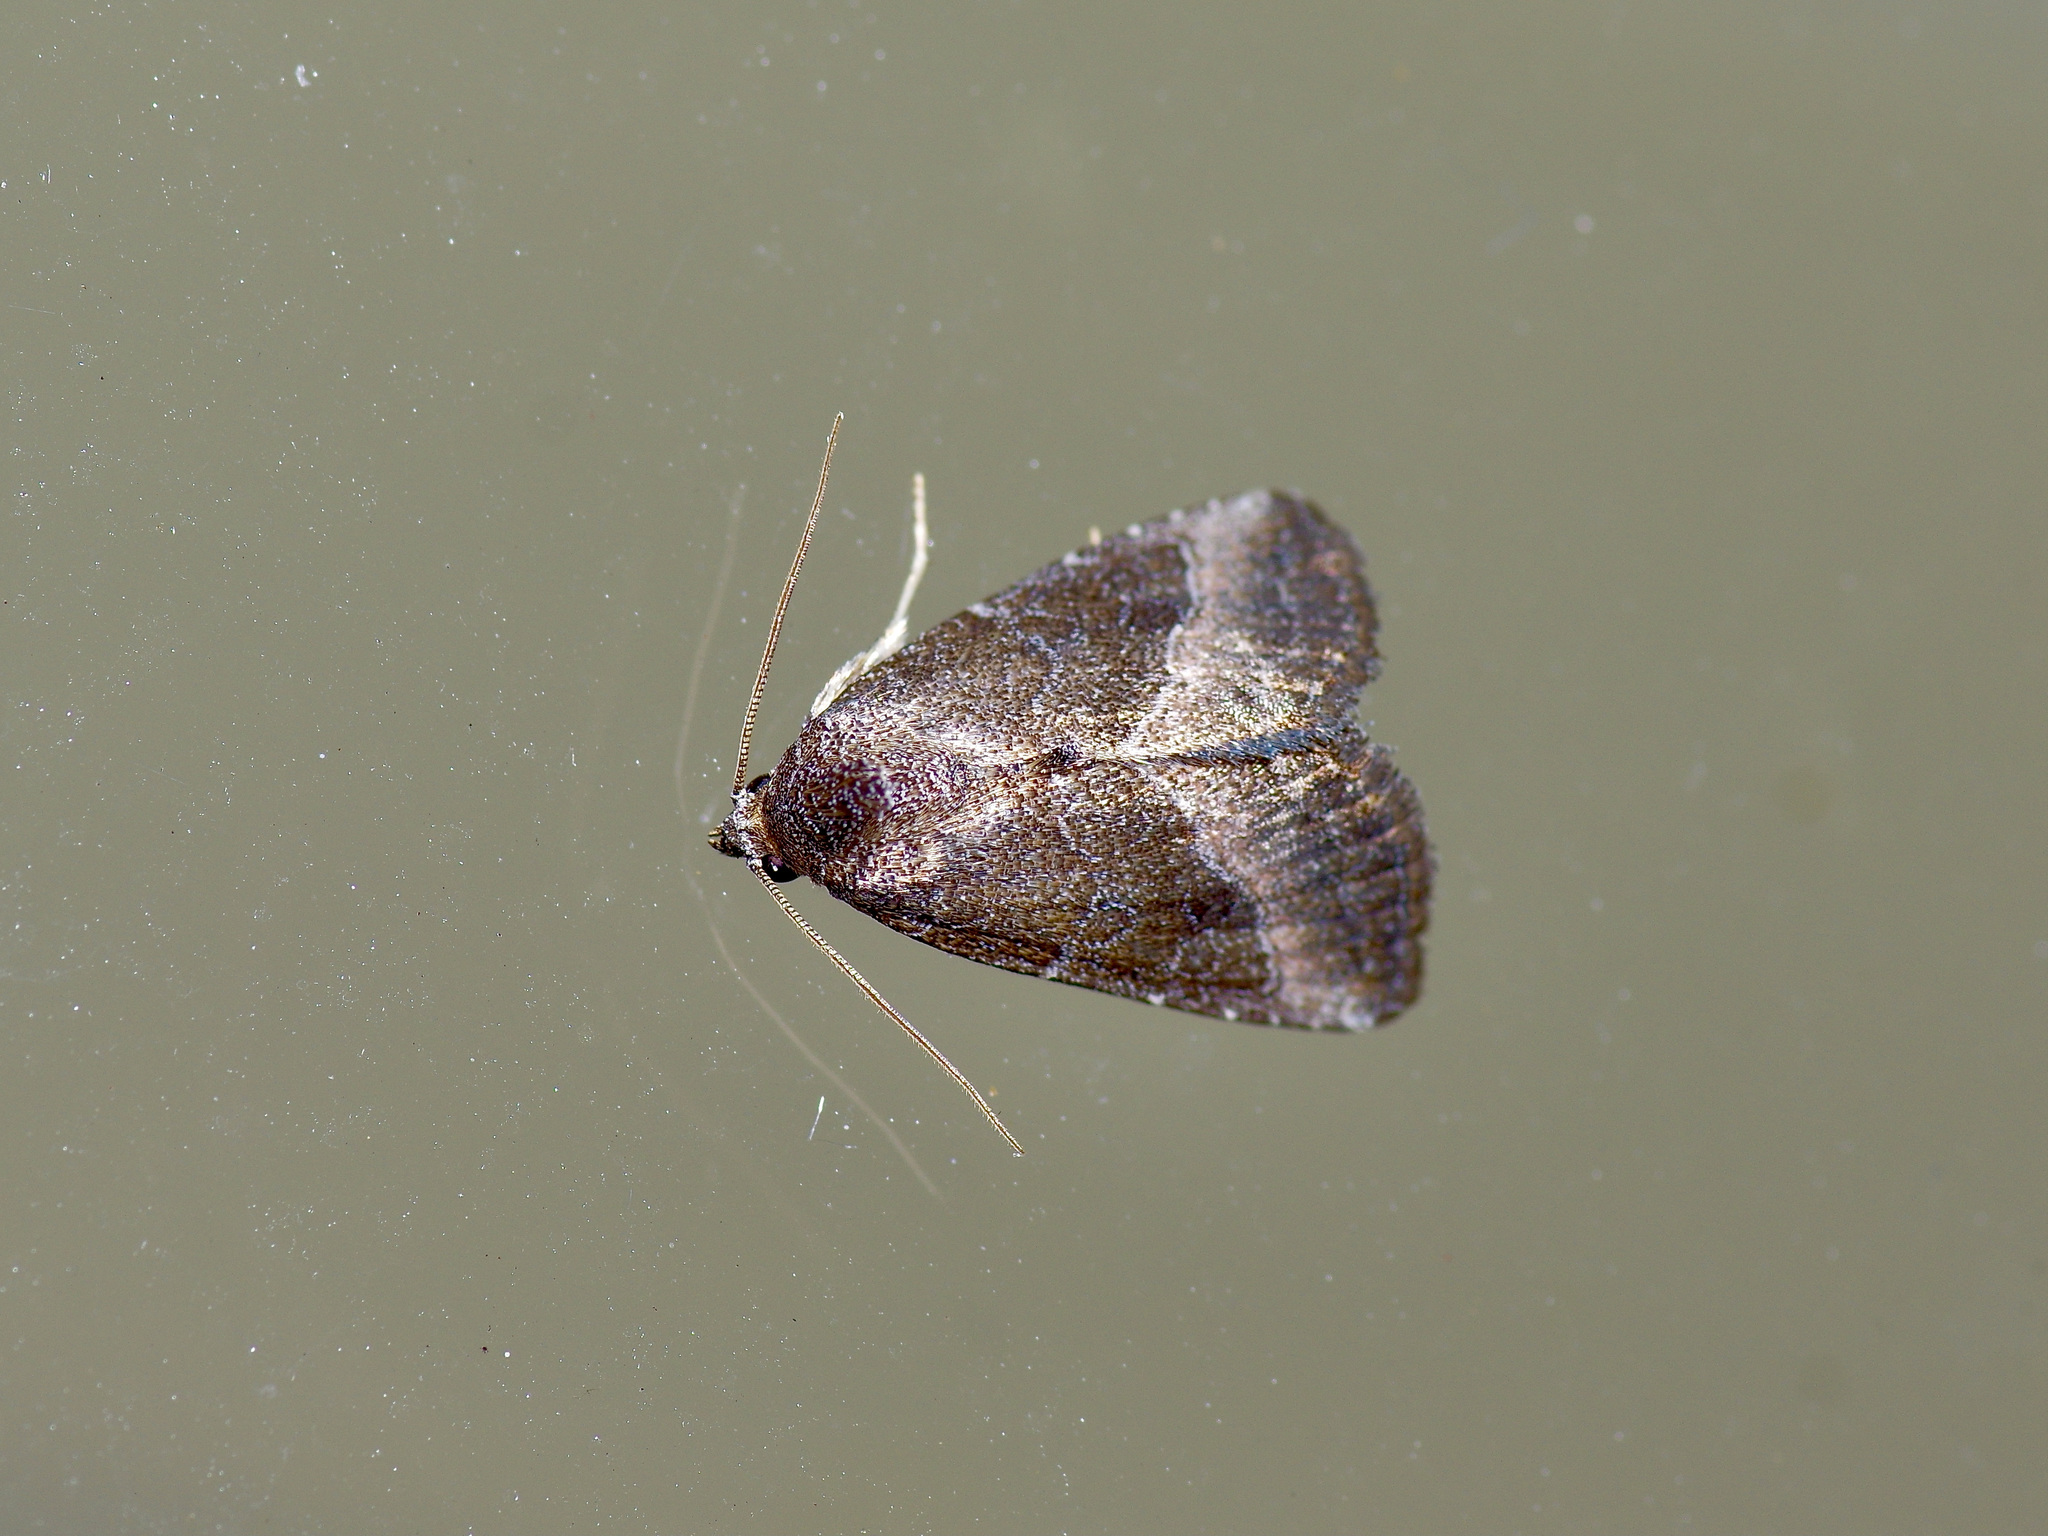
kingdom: Animalia
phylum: Arthropoda
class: Insecta
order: Lepidoptera
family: Noctuidae
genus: Ogdoconta
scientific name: Ogdoconta cinereola
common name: Common pinkband
